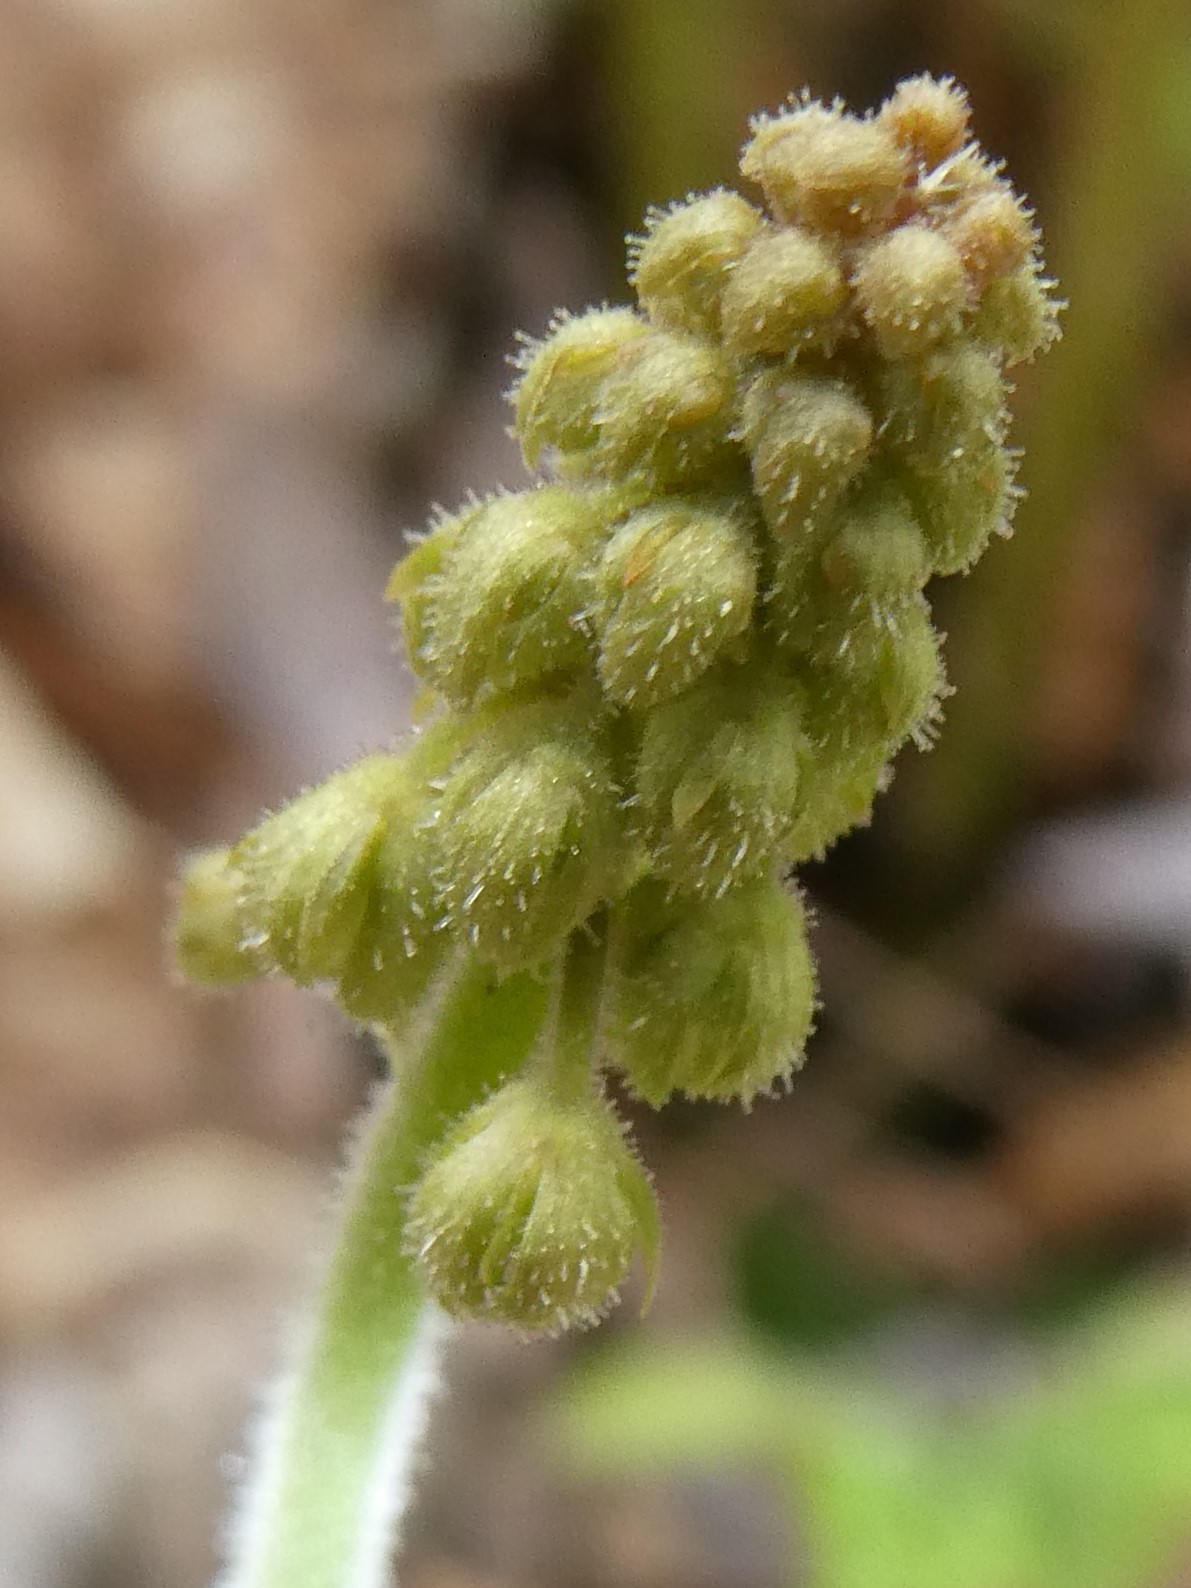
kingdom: Plantae
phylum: Tracheophyta
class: Magnoliopsida
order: Saxifragales
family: Saxifragaceae
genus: Tiarella
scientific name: Tiarella stolonifera
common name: Stoloniferous foamflower
